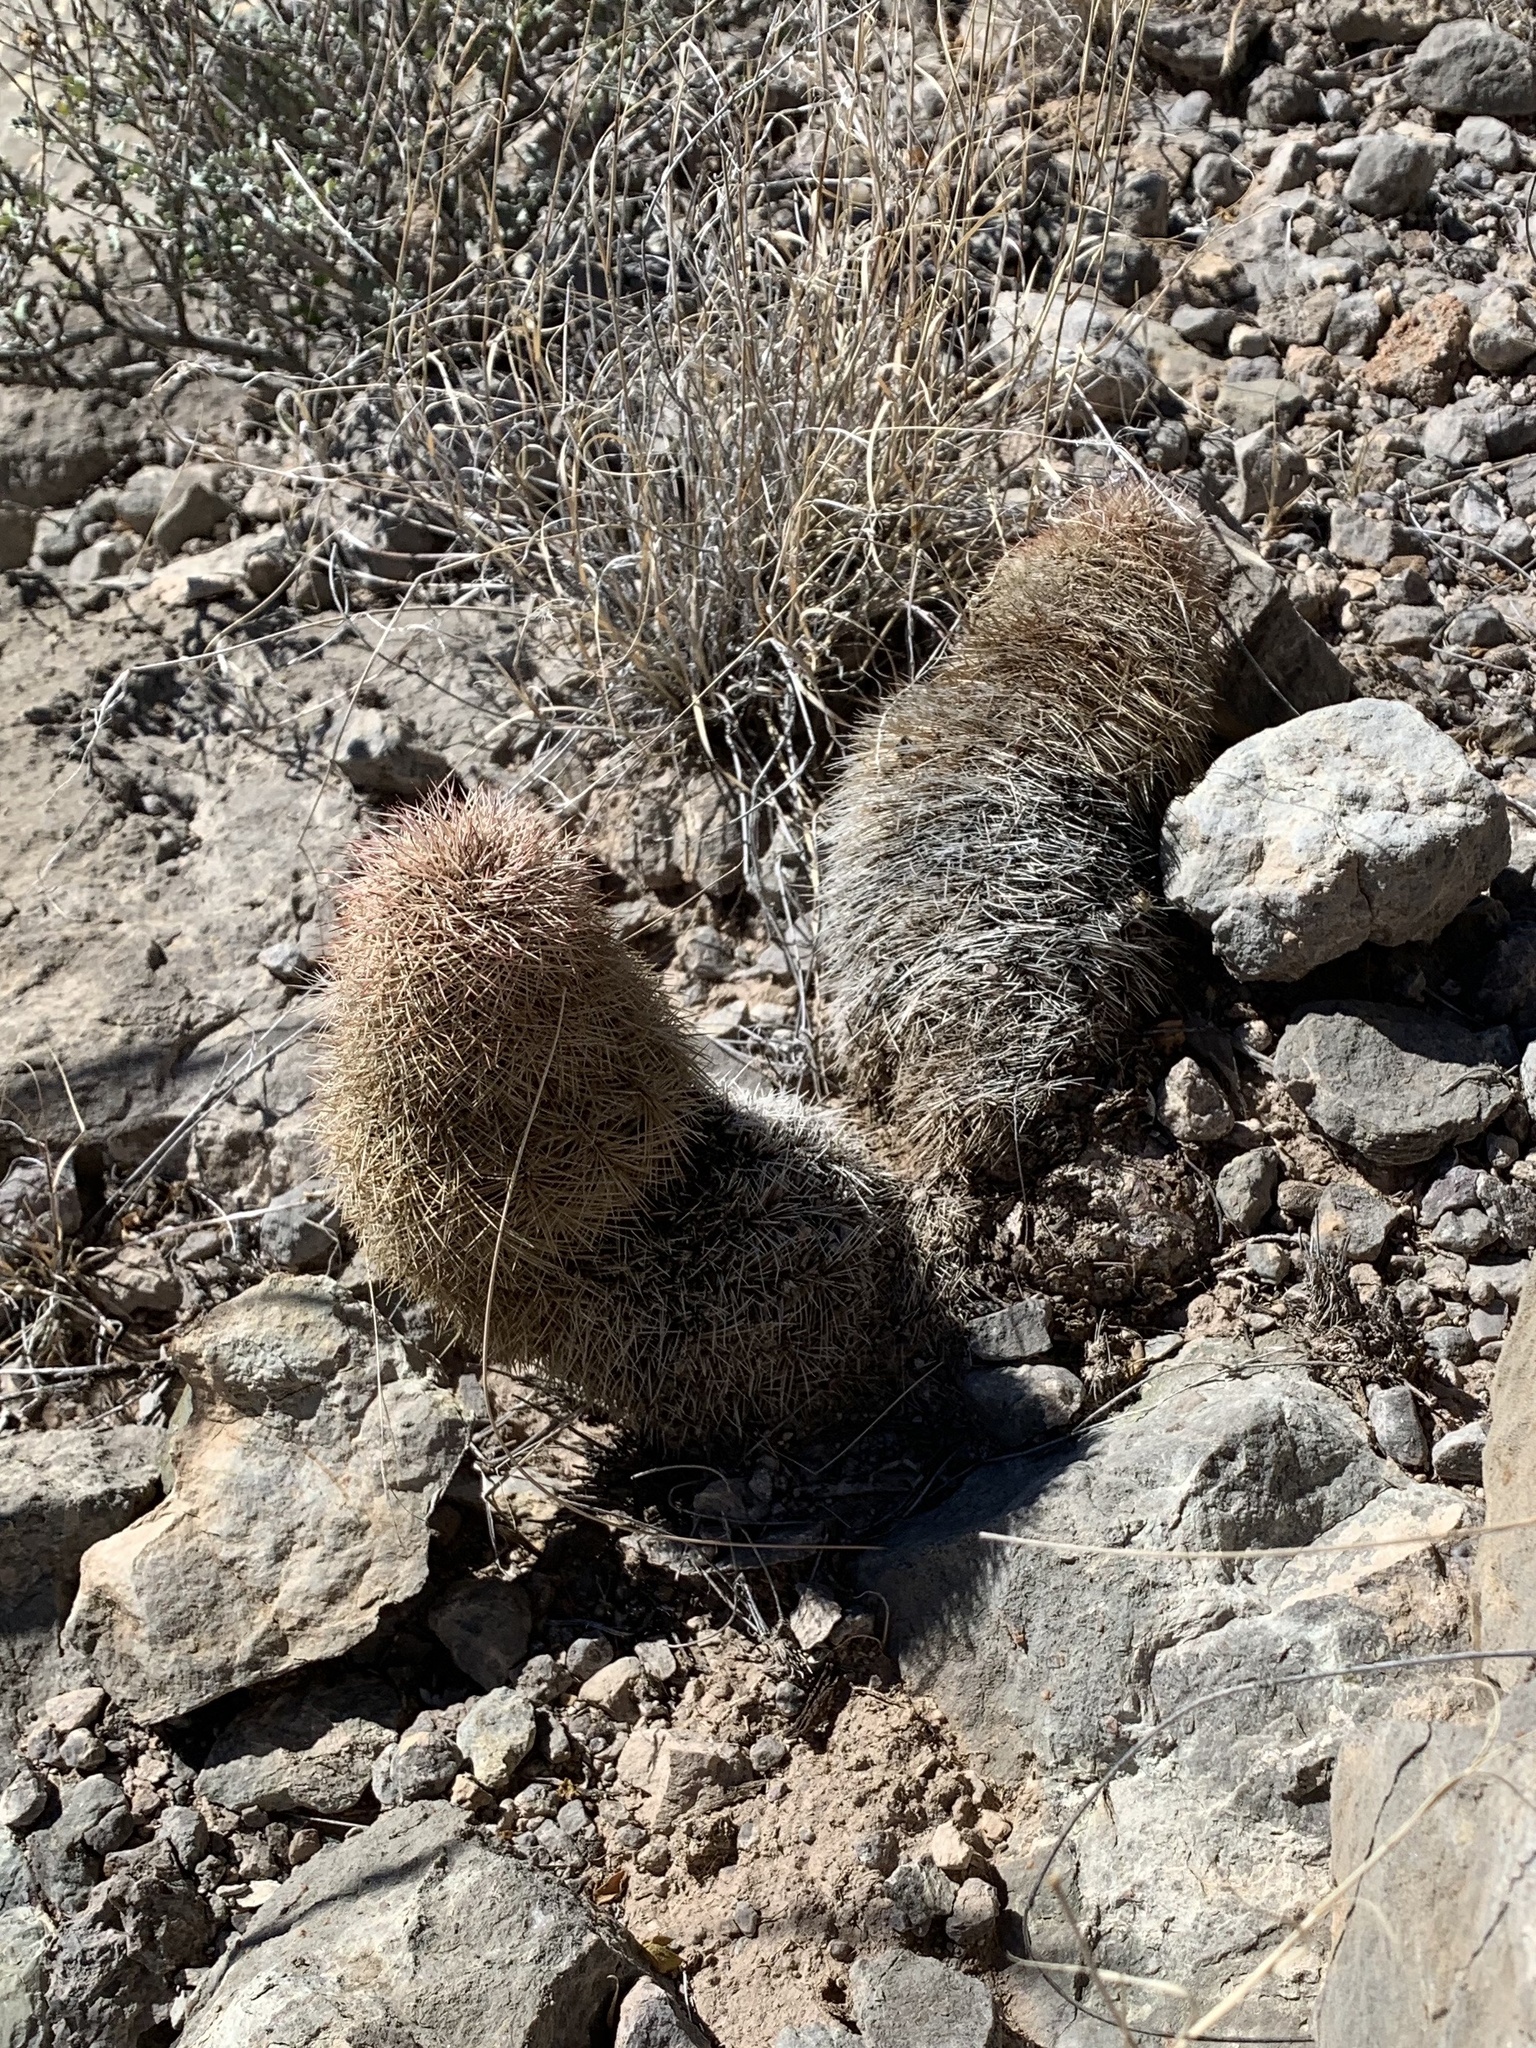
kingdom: Plantae
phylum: Tracheophyta
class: Magnoliopsida
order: Caryophyllales
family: Cactaceae
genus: Echinocereus
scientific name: Echinocereus dasyacanthus
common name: Spiny hedgehog cactus
